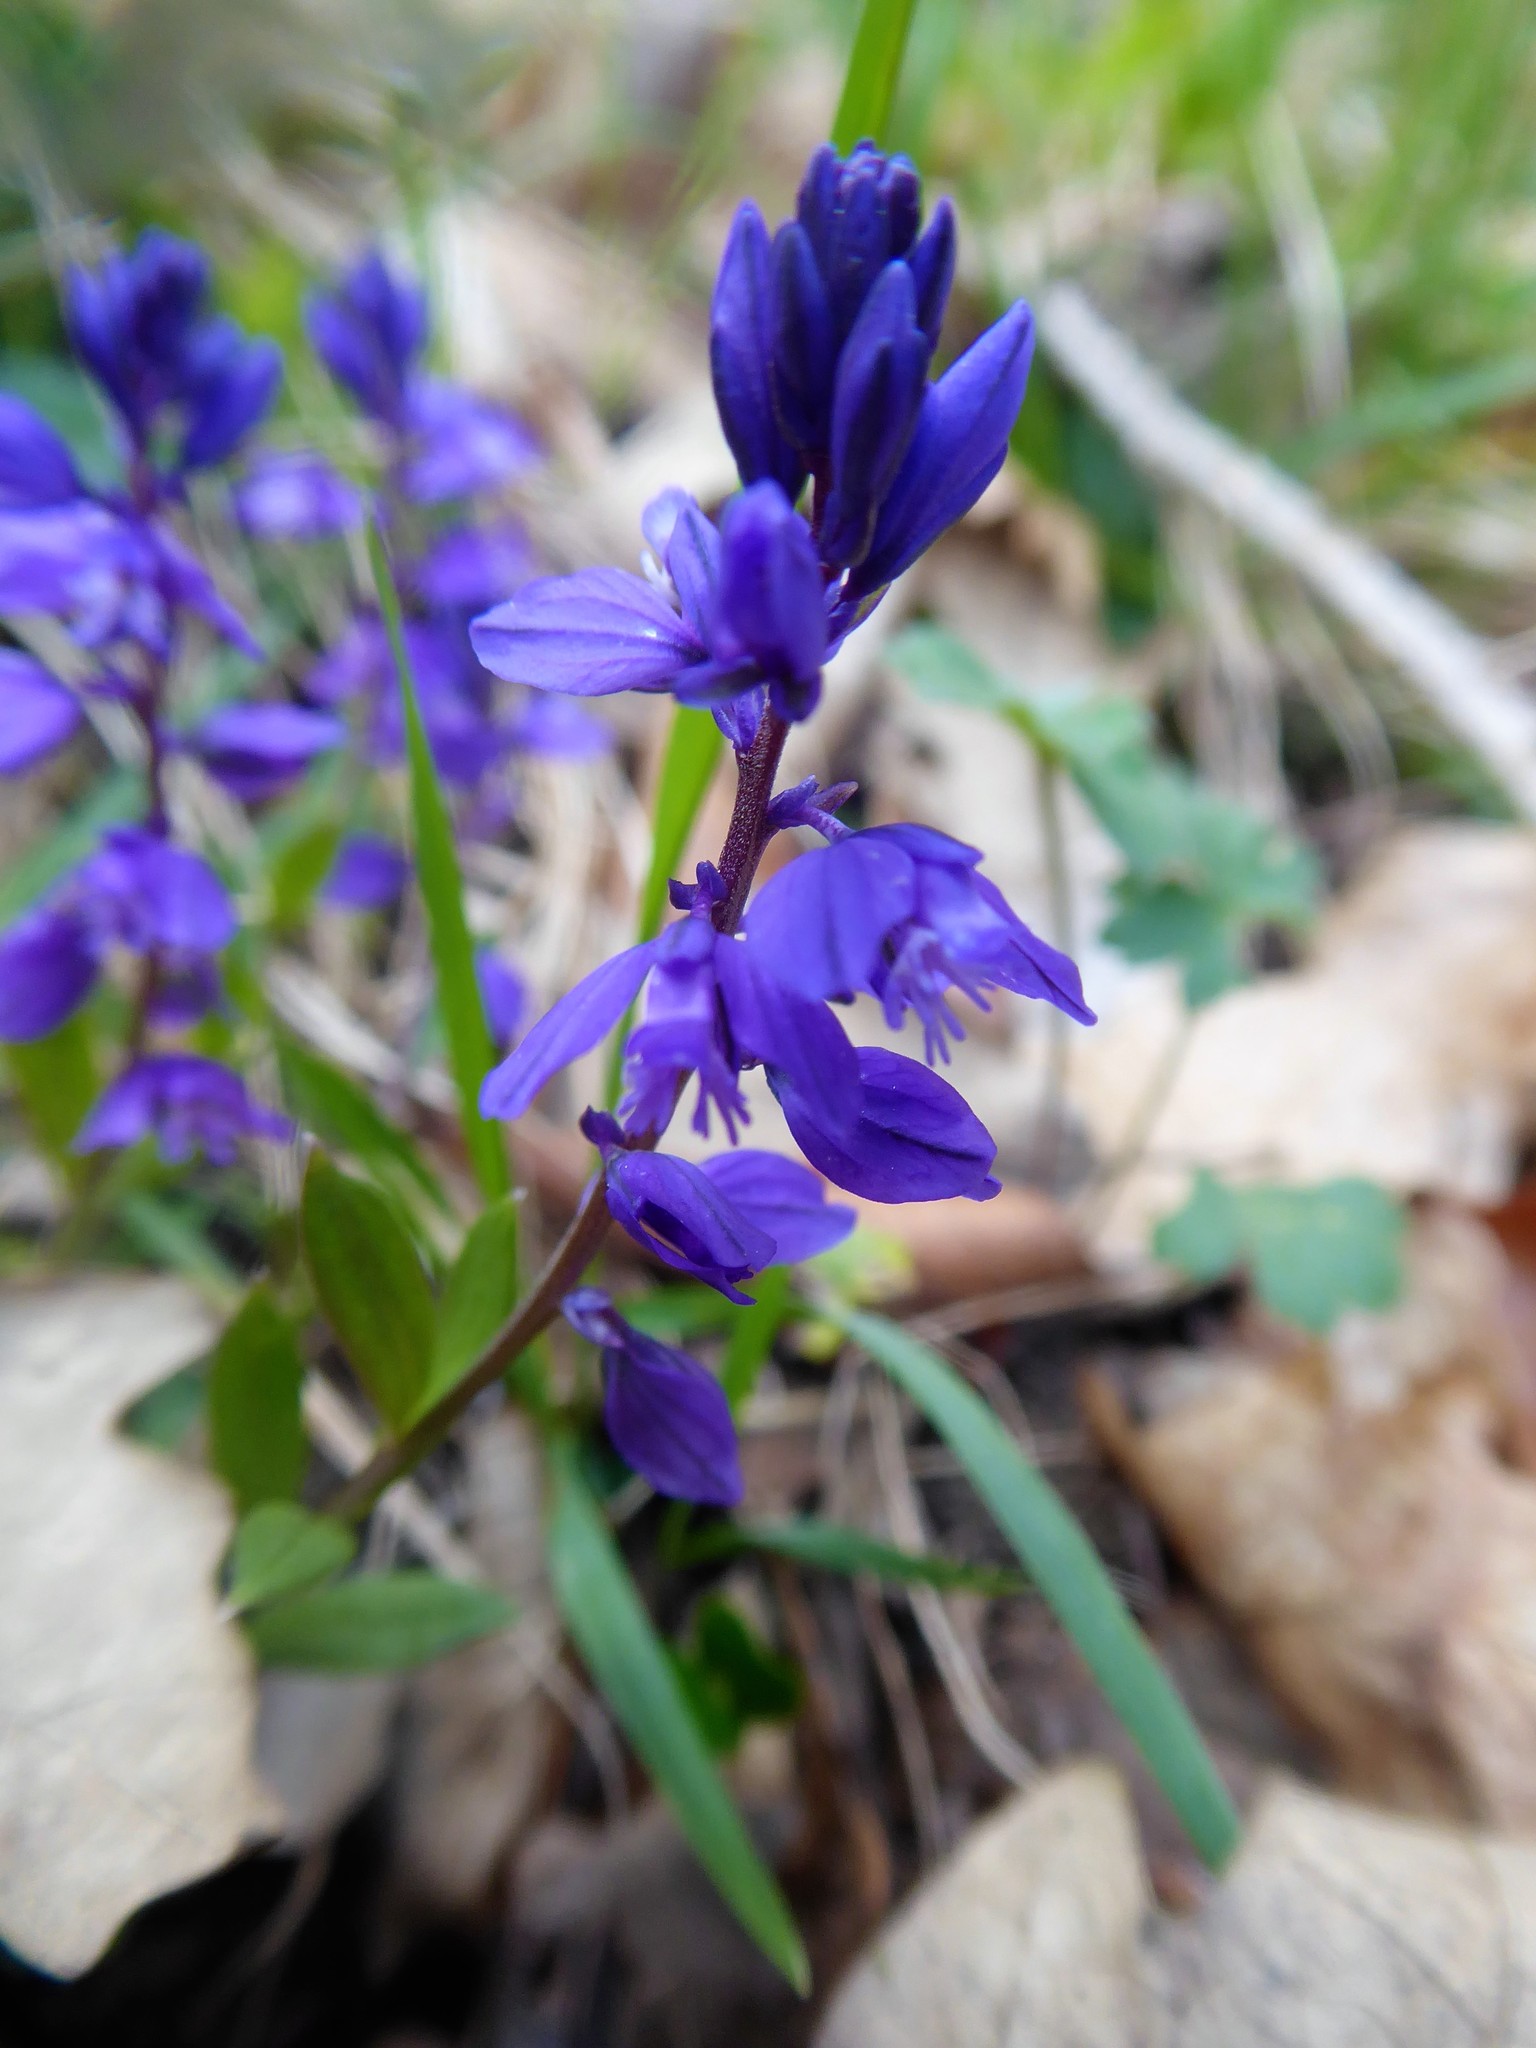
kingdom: Plantae
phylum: Tracheophyta
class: Magnoliopsida
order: Fabales
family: Polygalaceae
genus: Polygala
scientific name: Polygala amara
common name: Milkwort
